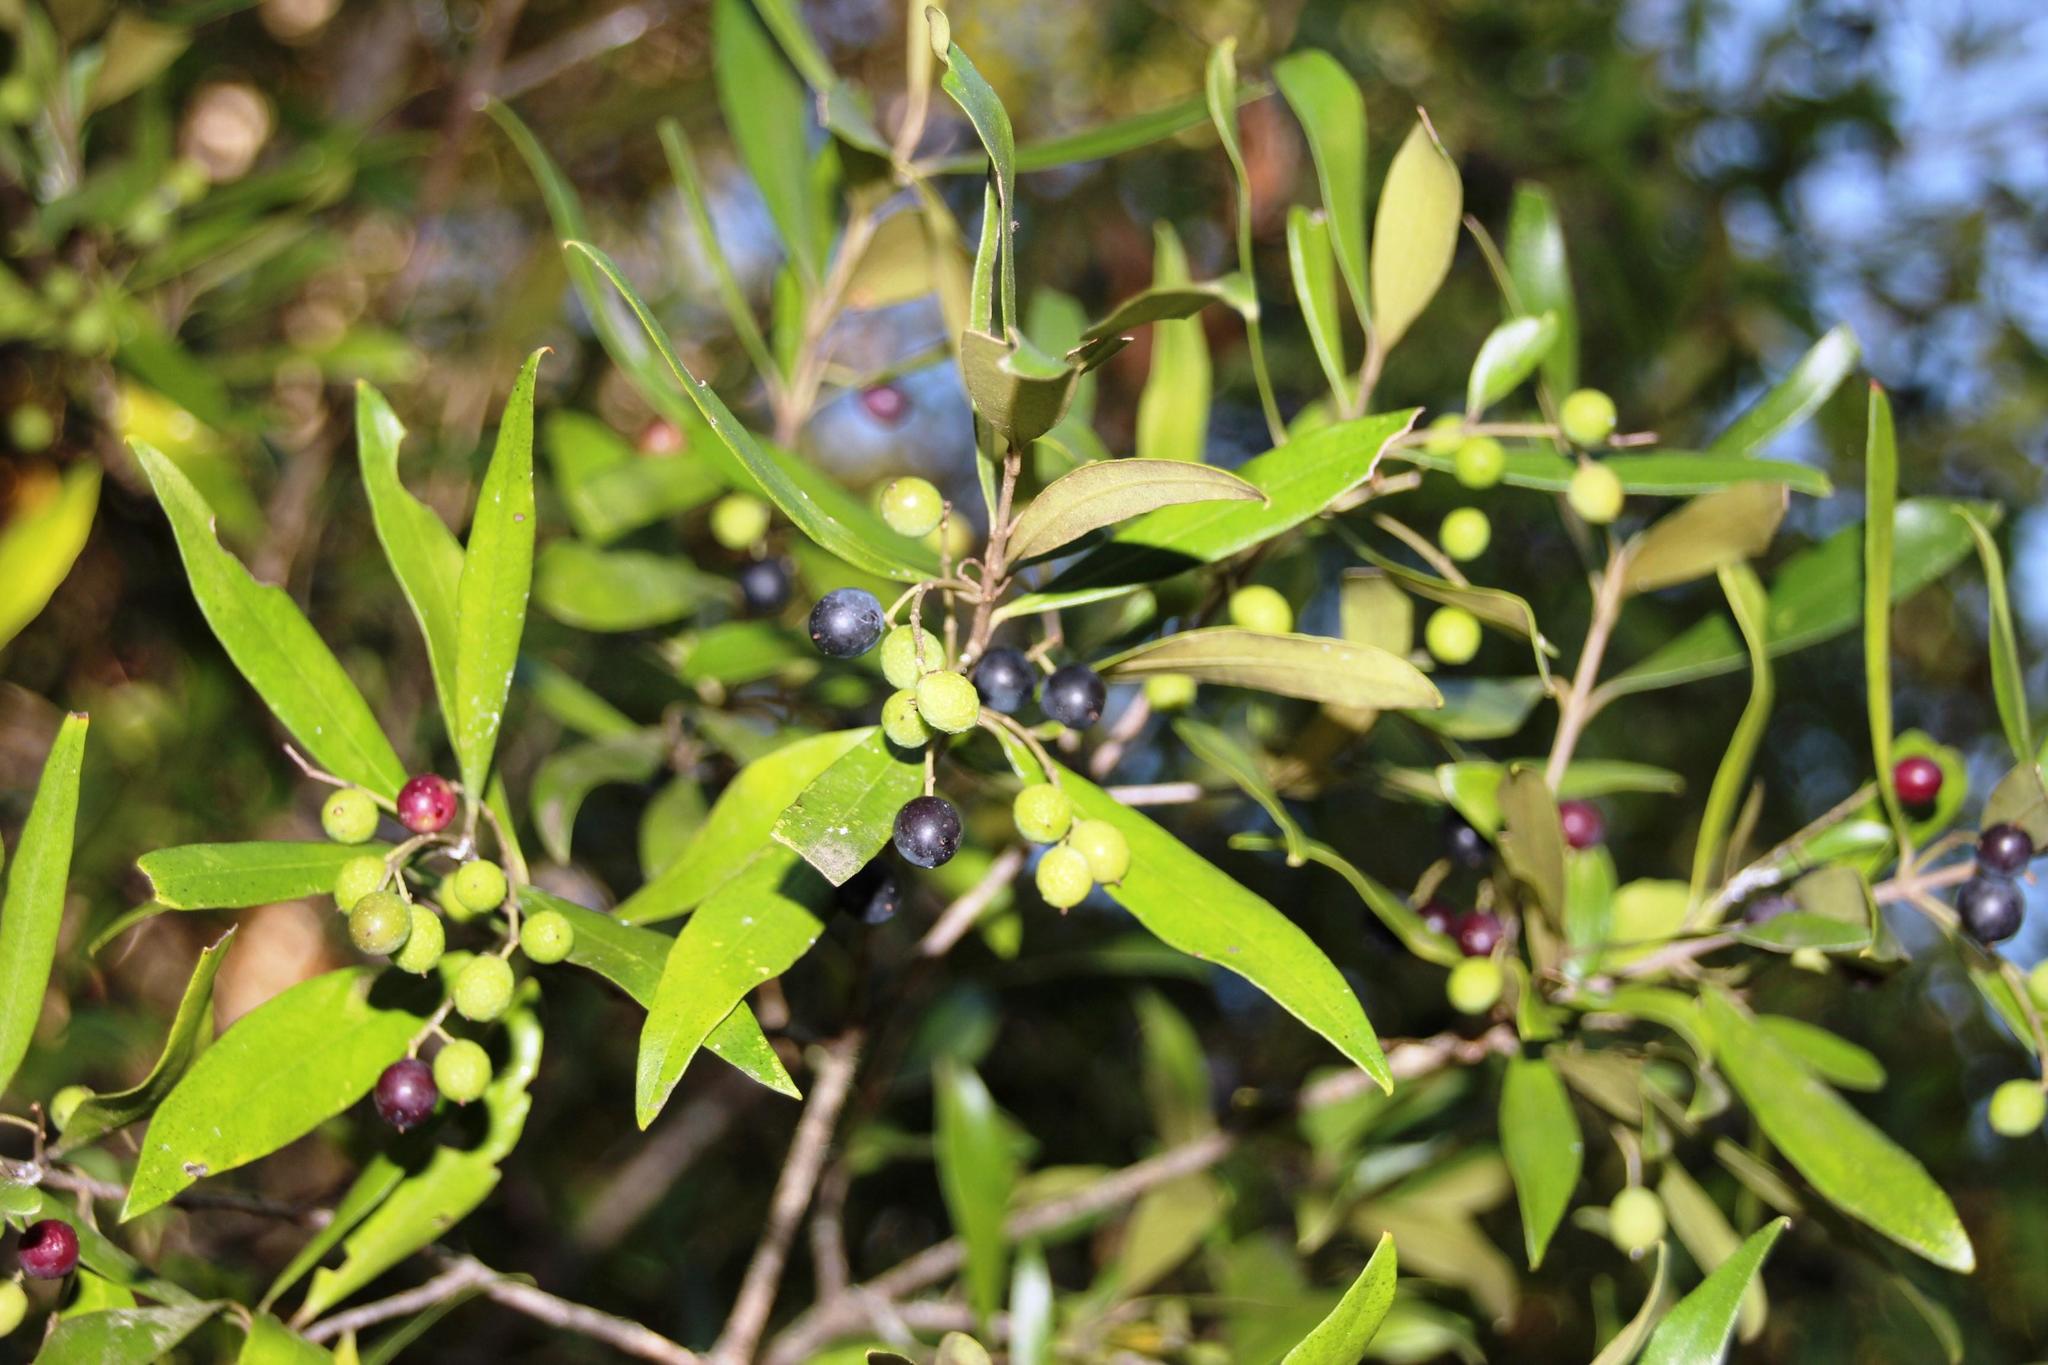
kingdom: Plantae
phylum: Tracheophyta
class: Magnoliopsida
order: Lamiales
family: Oleaceae
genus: Olea
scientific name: Olea europaea
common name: Olive
